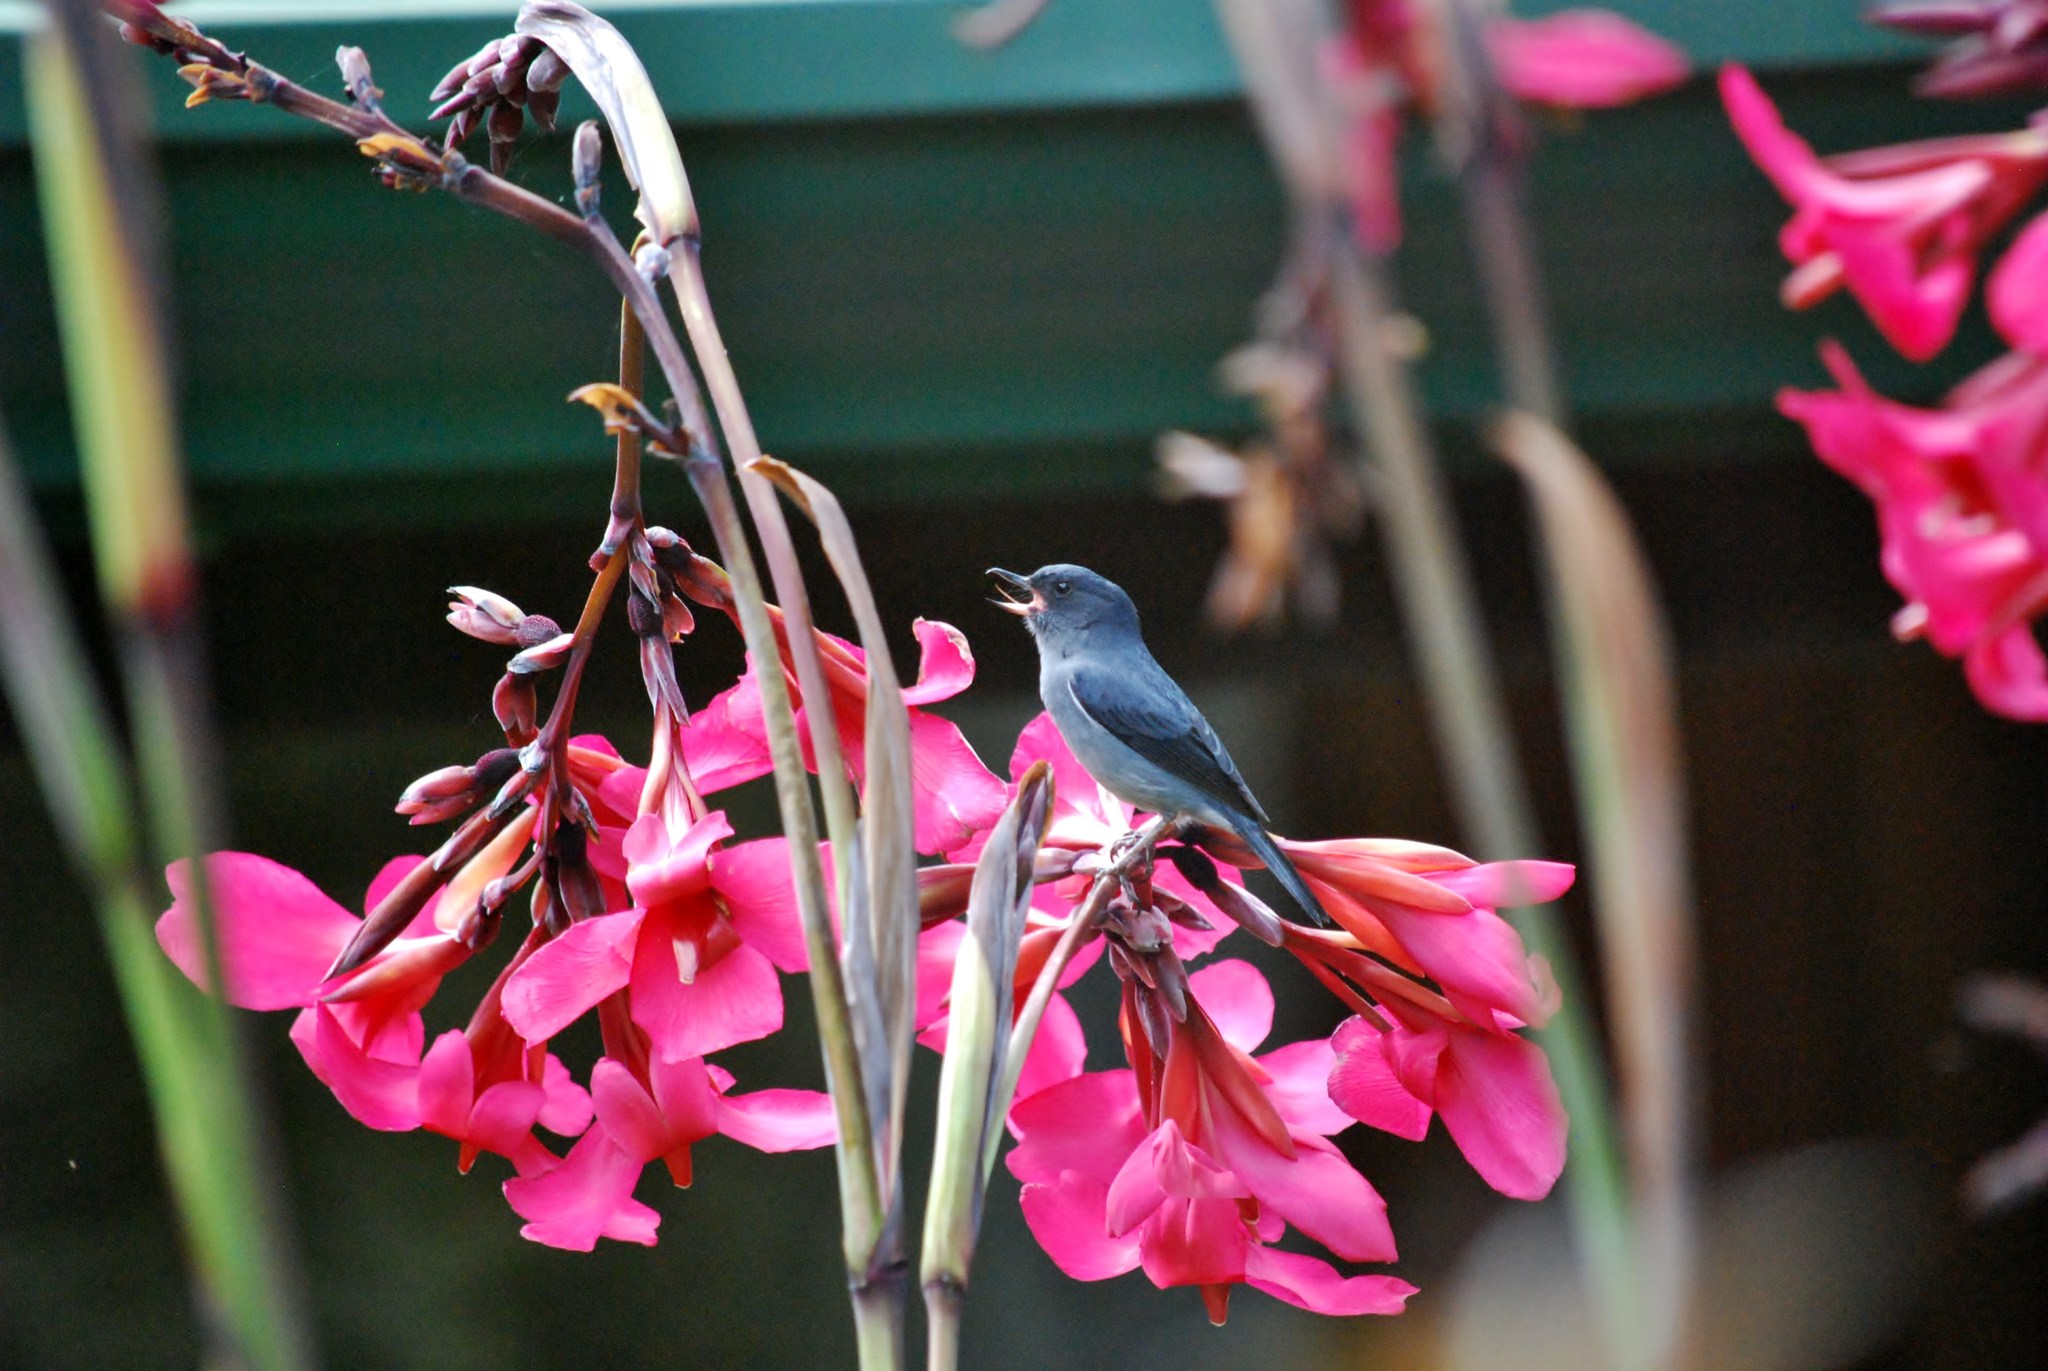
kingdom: Animalia
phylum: Chordata
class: Aves
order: Passeriformes
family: Thraupidae
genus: Diglossa
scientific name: Diglossa plumbea
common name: Slaty flowerpiercer
